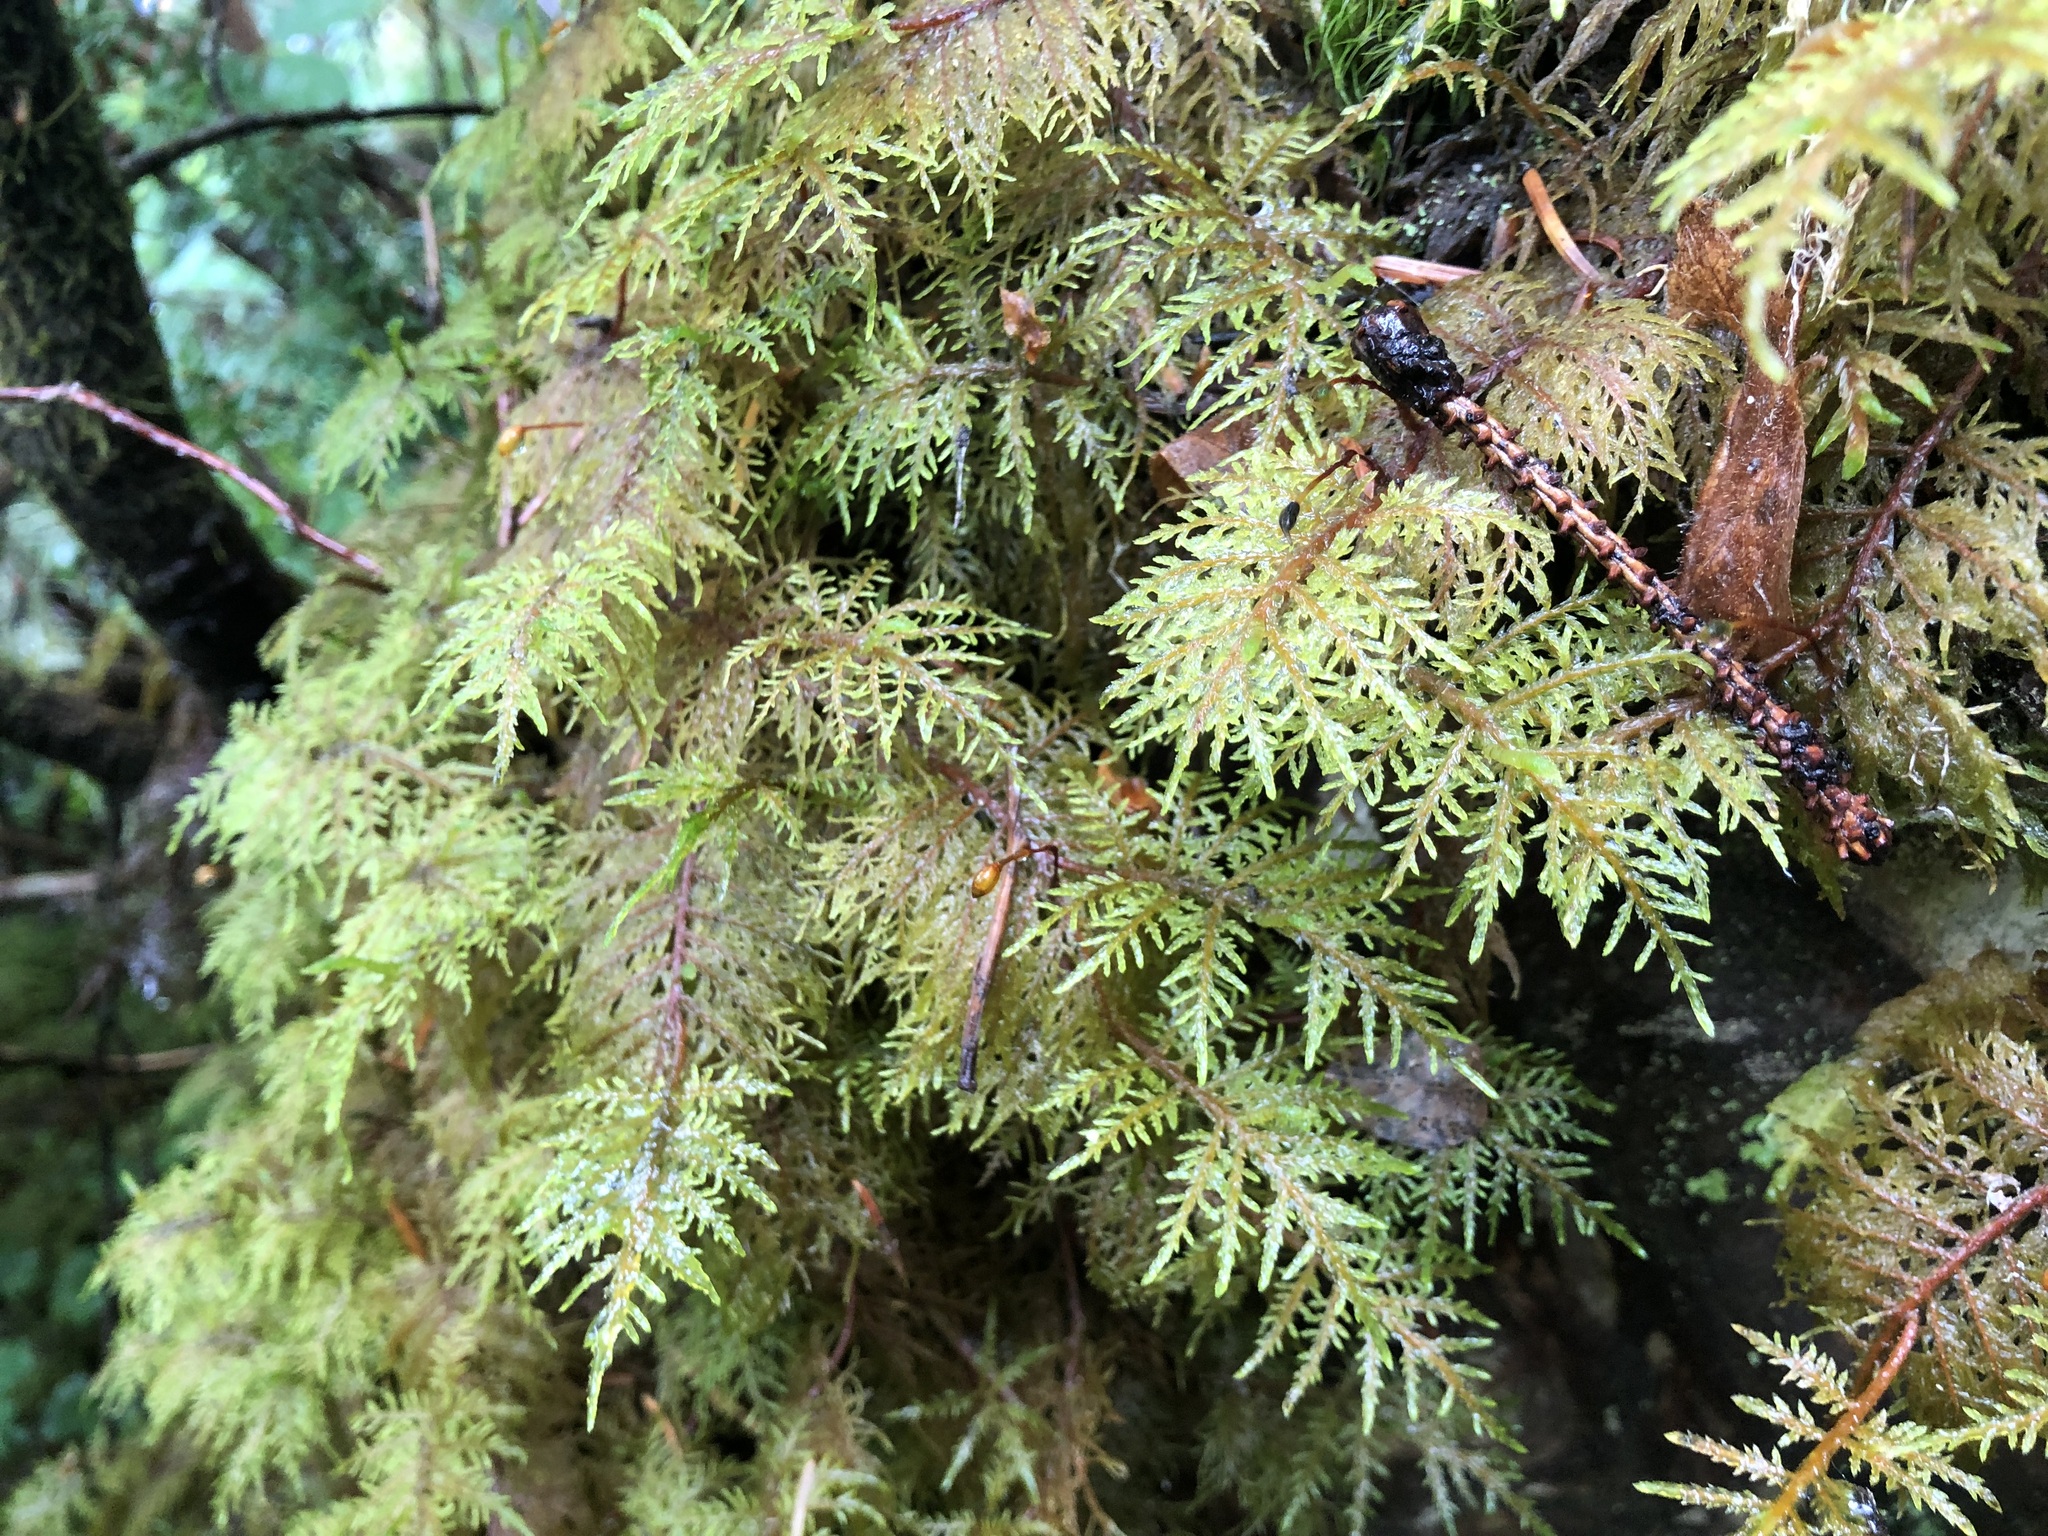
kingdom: Plantae
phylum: Bryophyta
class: Bryopsida
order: Hypnales
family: Hylocomiaceae
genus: Hylocomium
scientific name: Hylocomium splendens
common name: Stairstep moss
